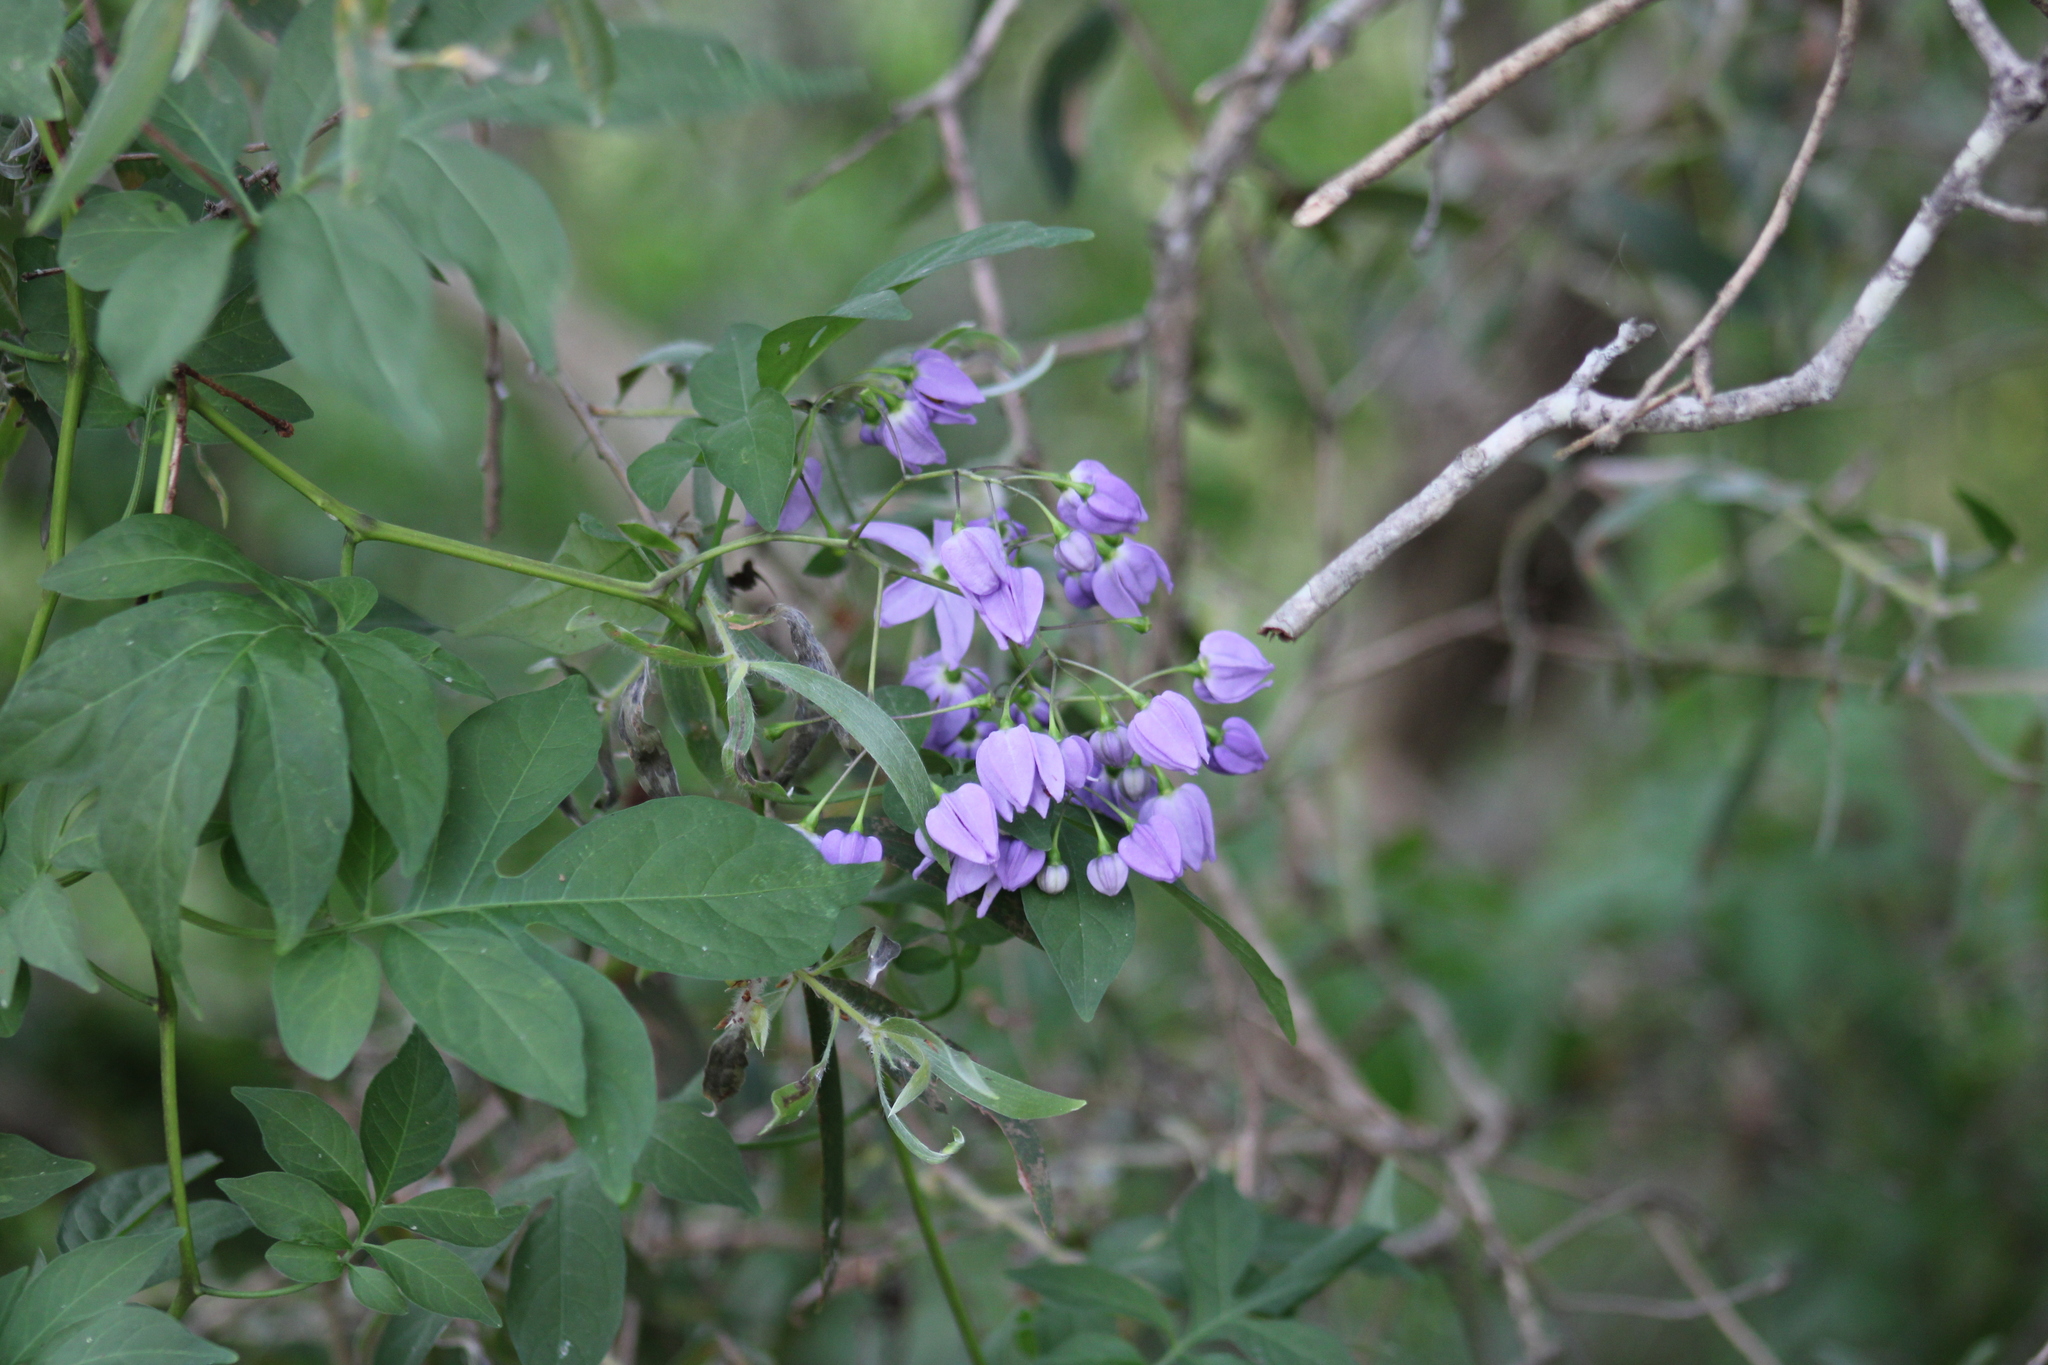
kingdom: Plantae
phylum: Tracheophyta
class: Magnoliopsida
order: Solanales
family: Solanaceae
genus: Solanum
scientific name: Solanum seaforthianum
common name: Brazilian nightshade
